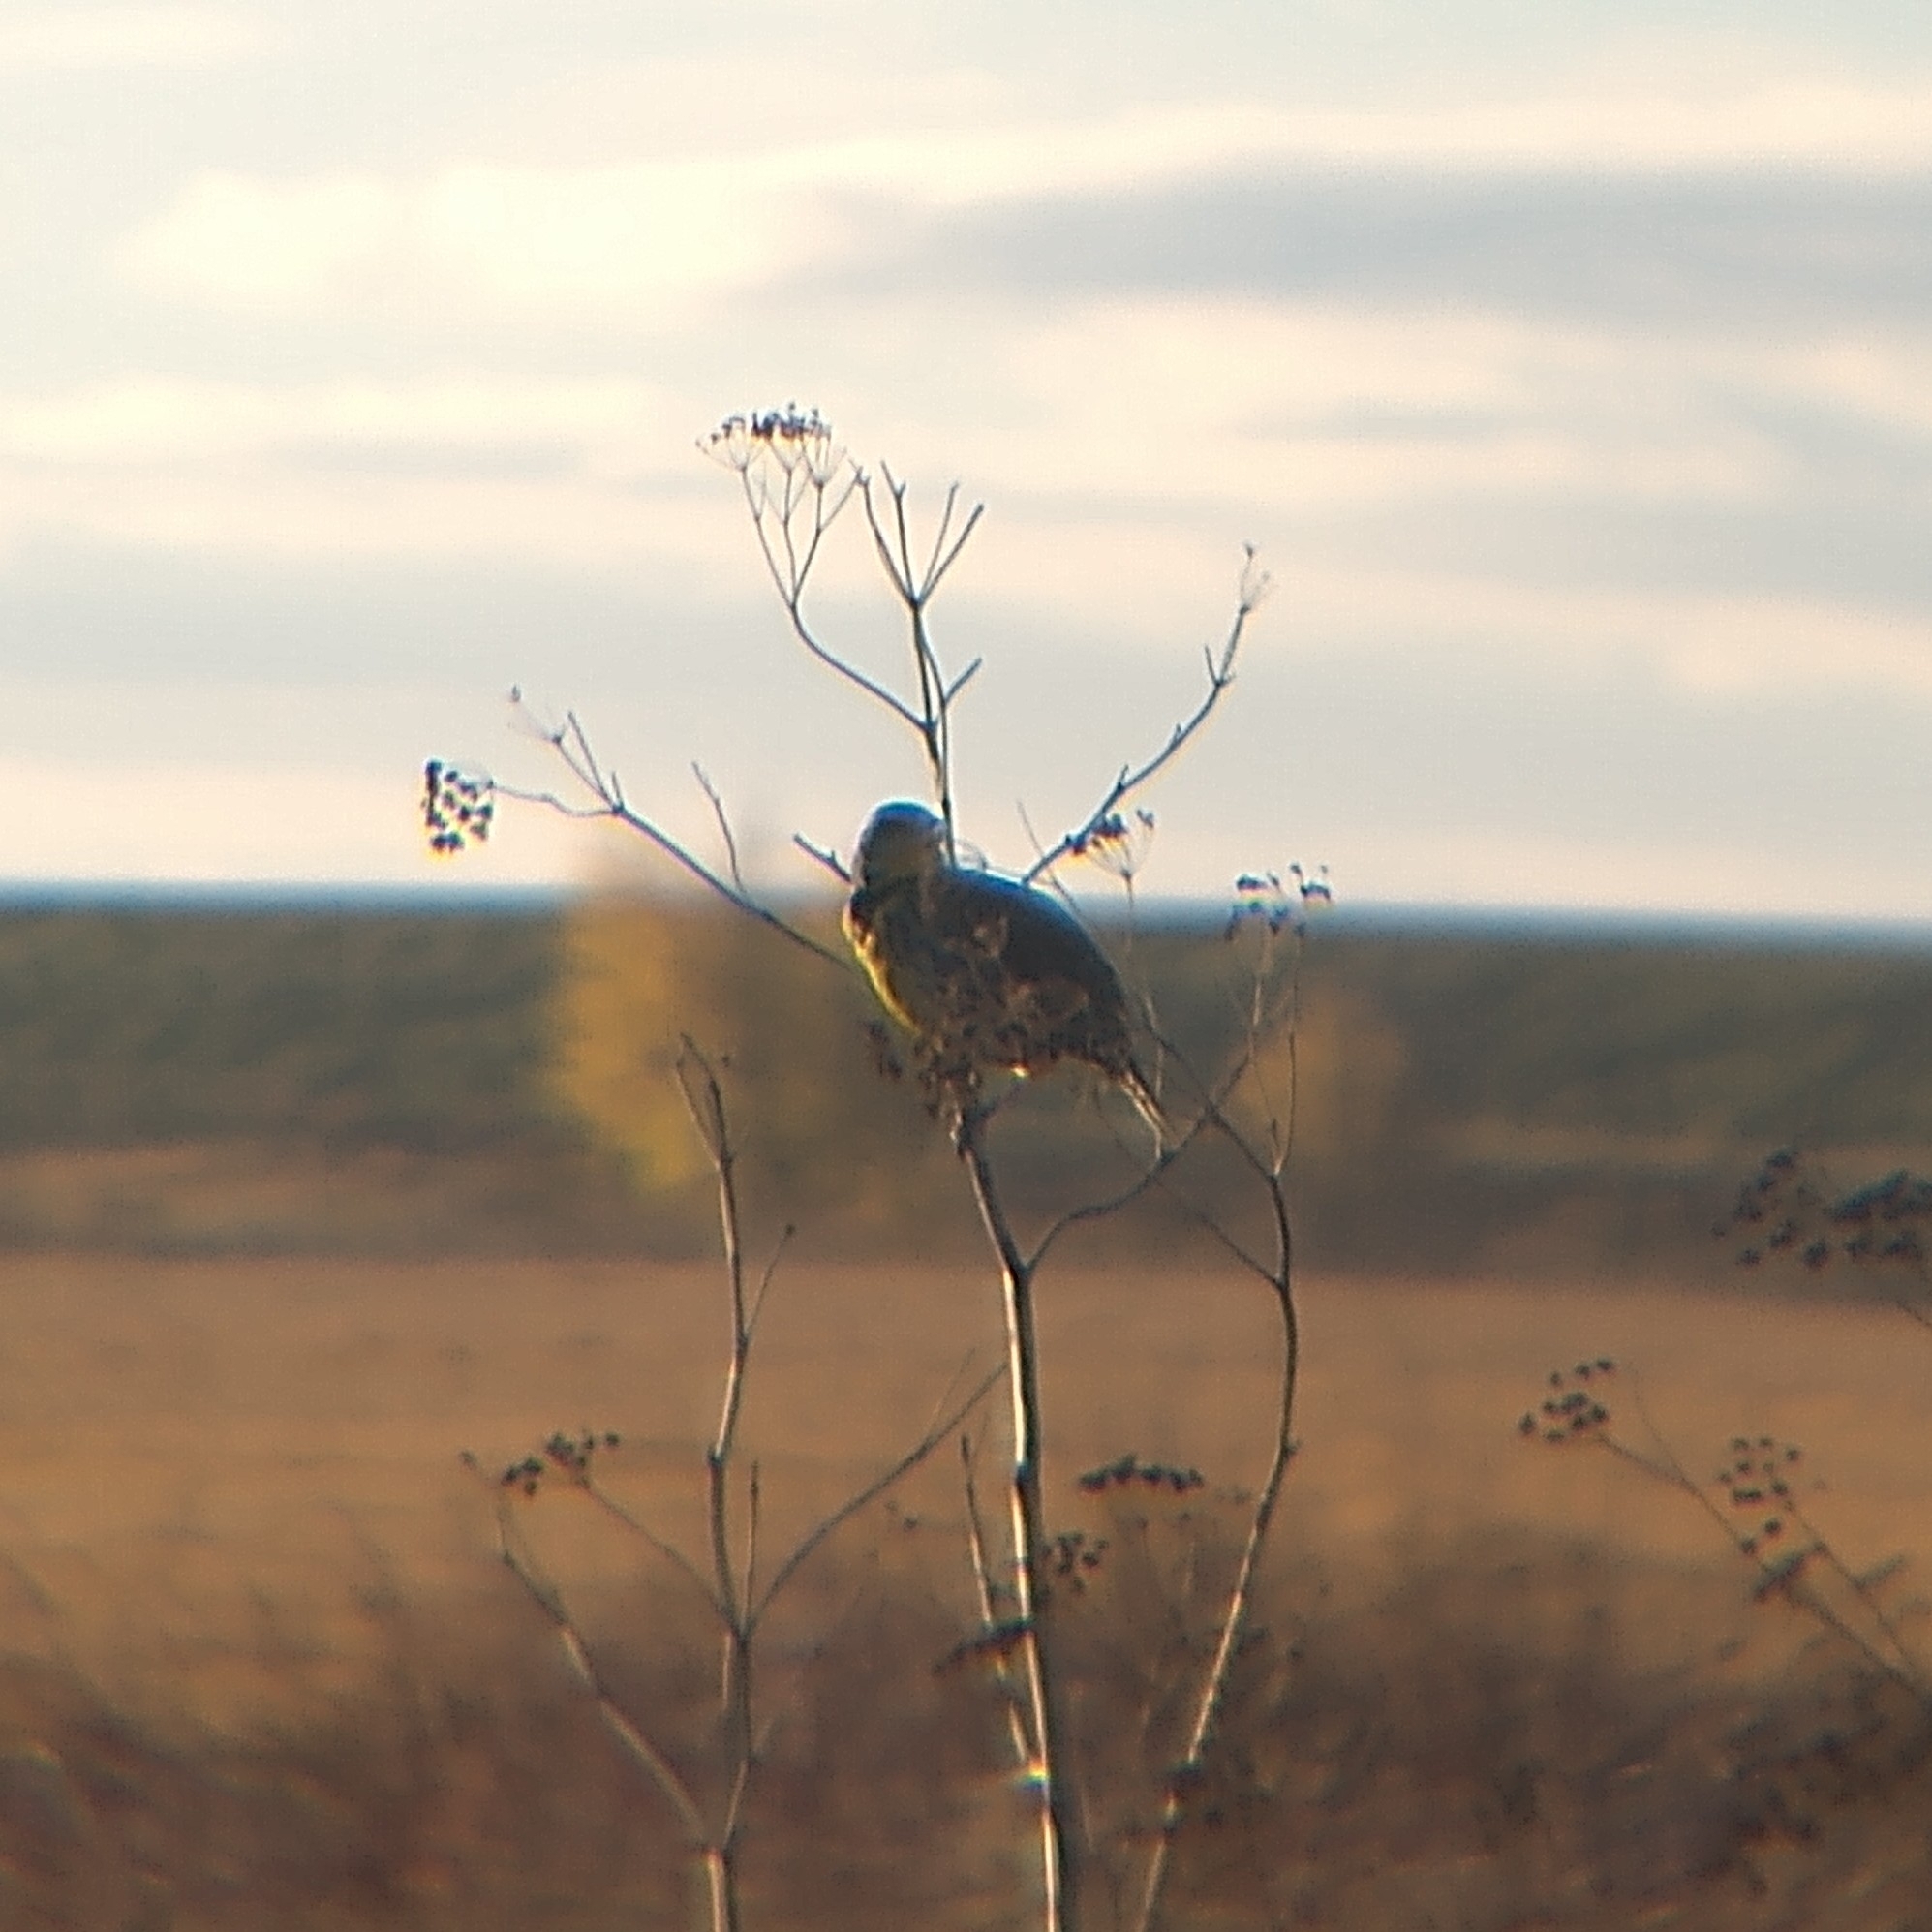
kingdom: Animalia
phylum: Chordata
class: Aves
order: Passeriformes
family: Icteridae
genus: Sturnella
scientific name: Sturnella neglecta
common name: Western meadowlark
